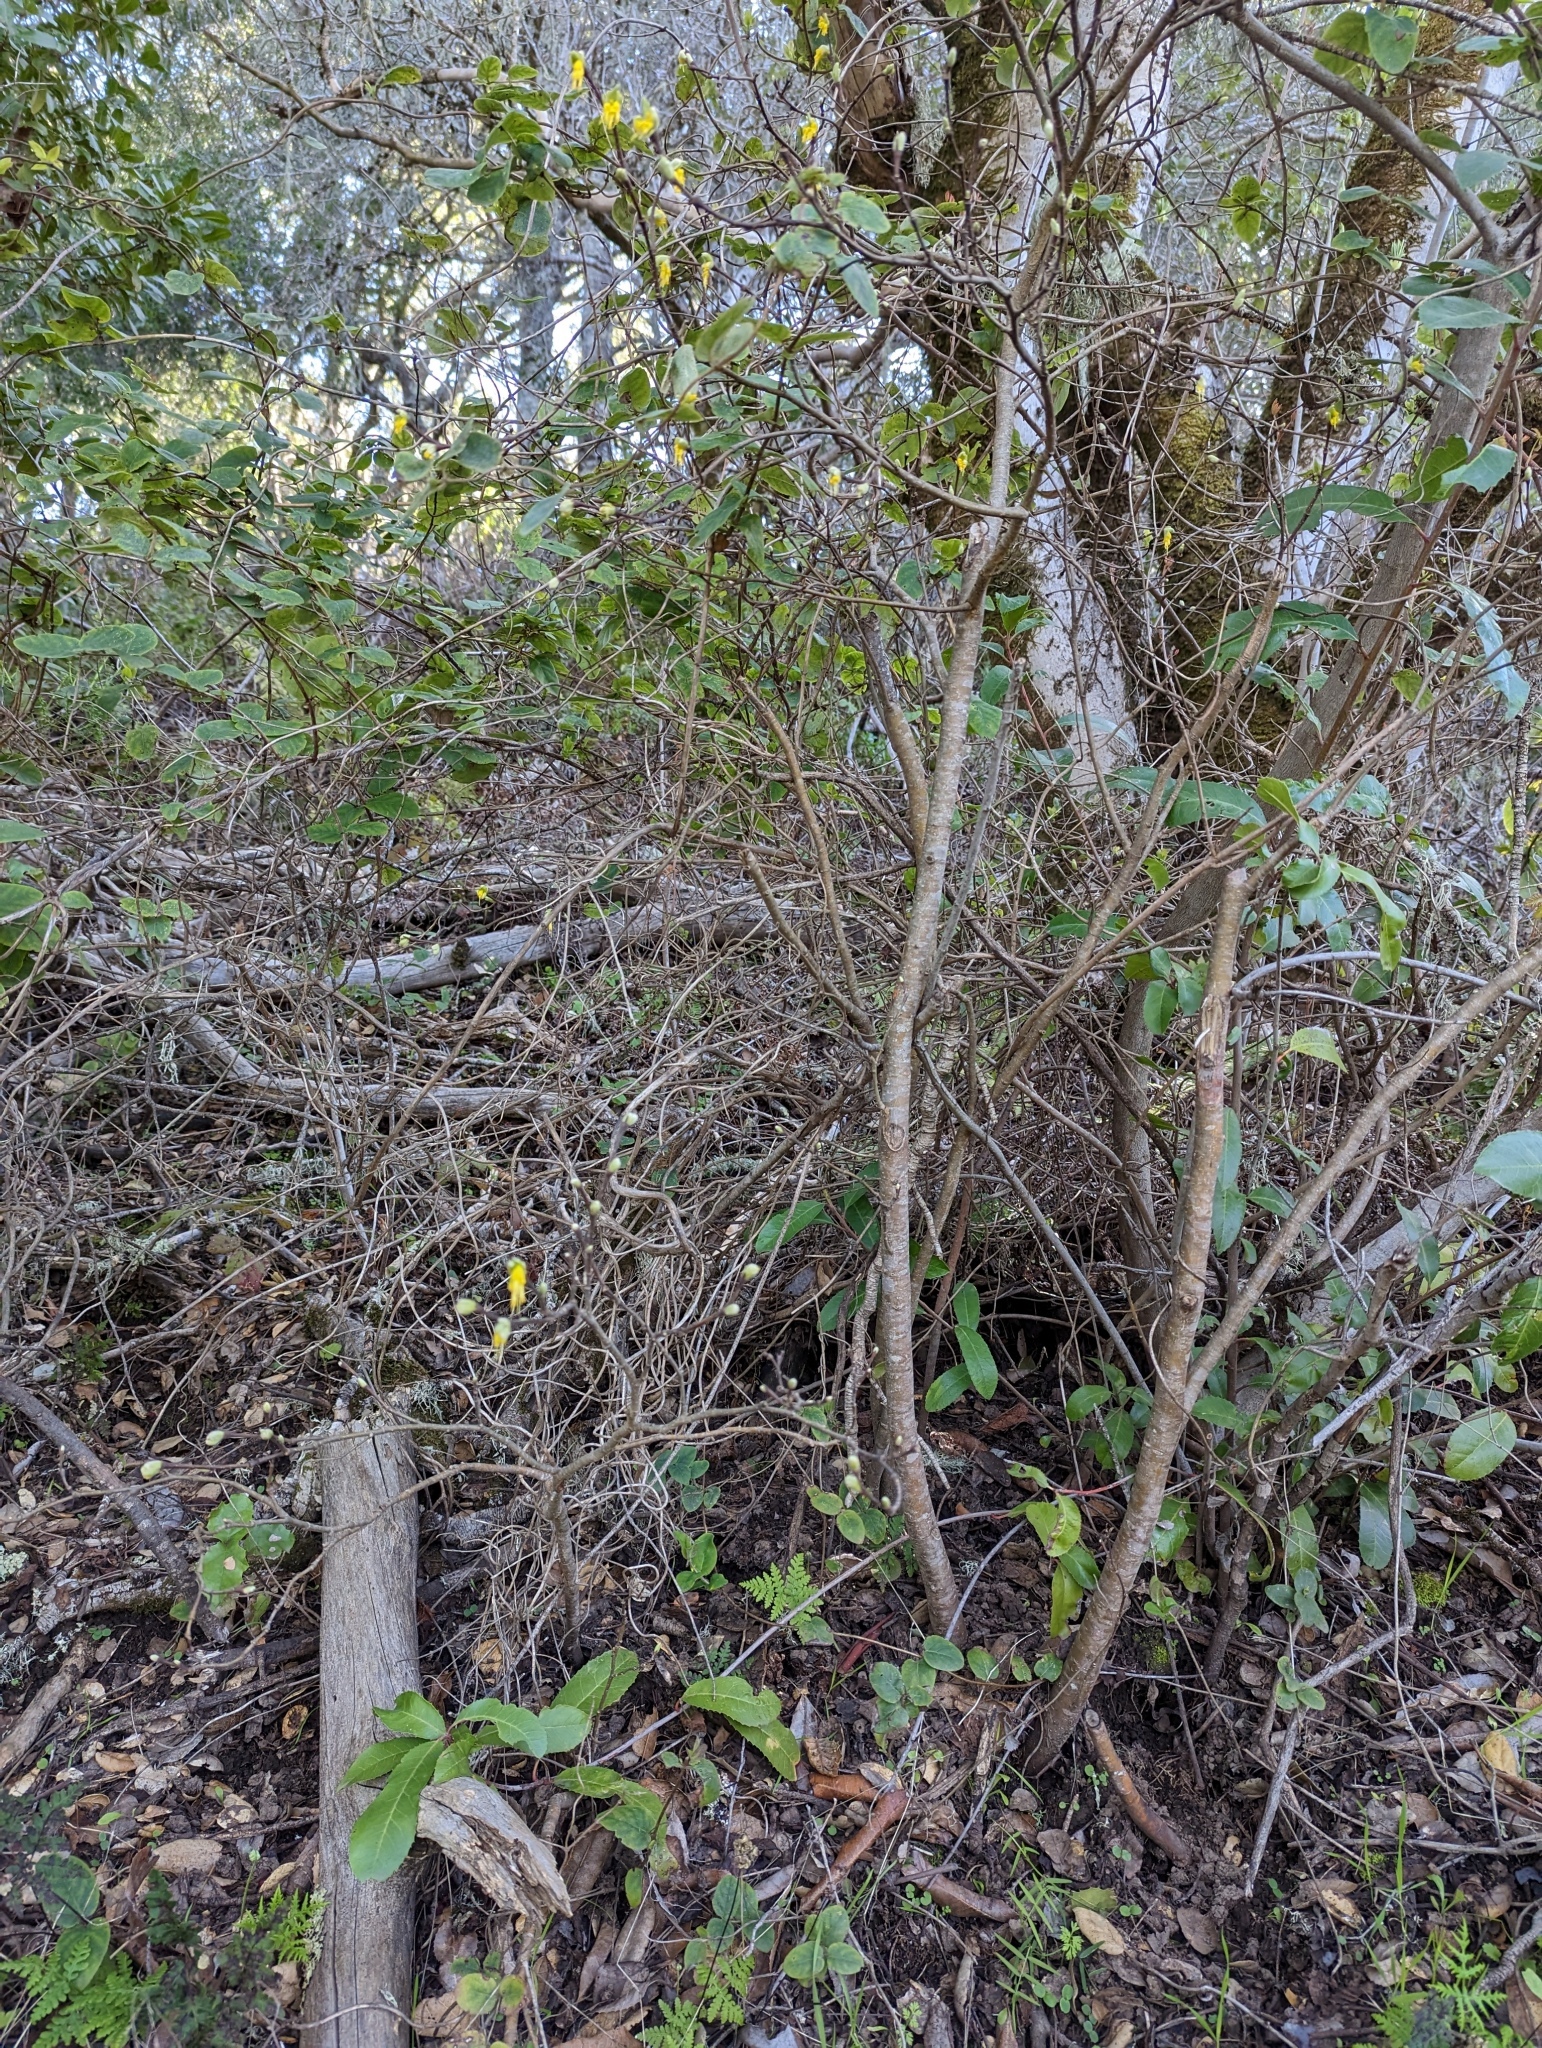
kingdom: Plantae
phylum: Tracheophyta
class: Magnoliopsida
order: Malvales
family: Thymelaeaceae
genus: Dirca
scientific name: Dirca occidentalis
